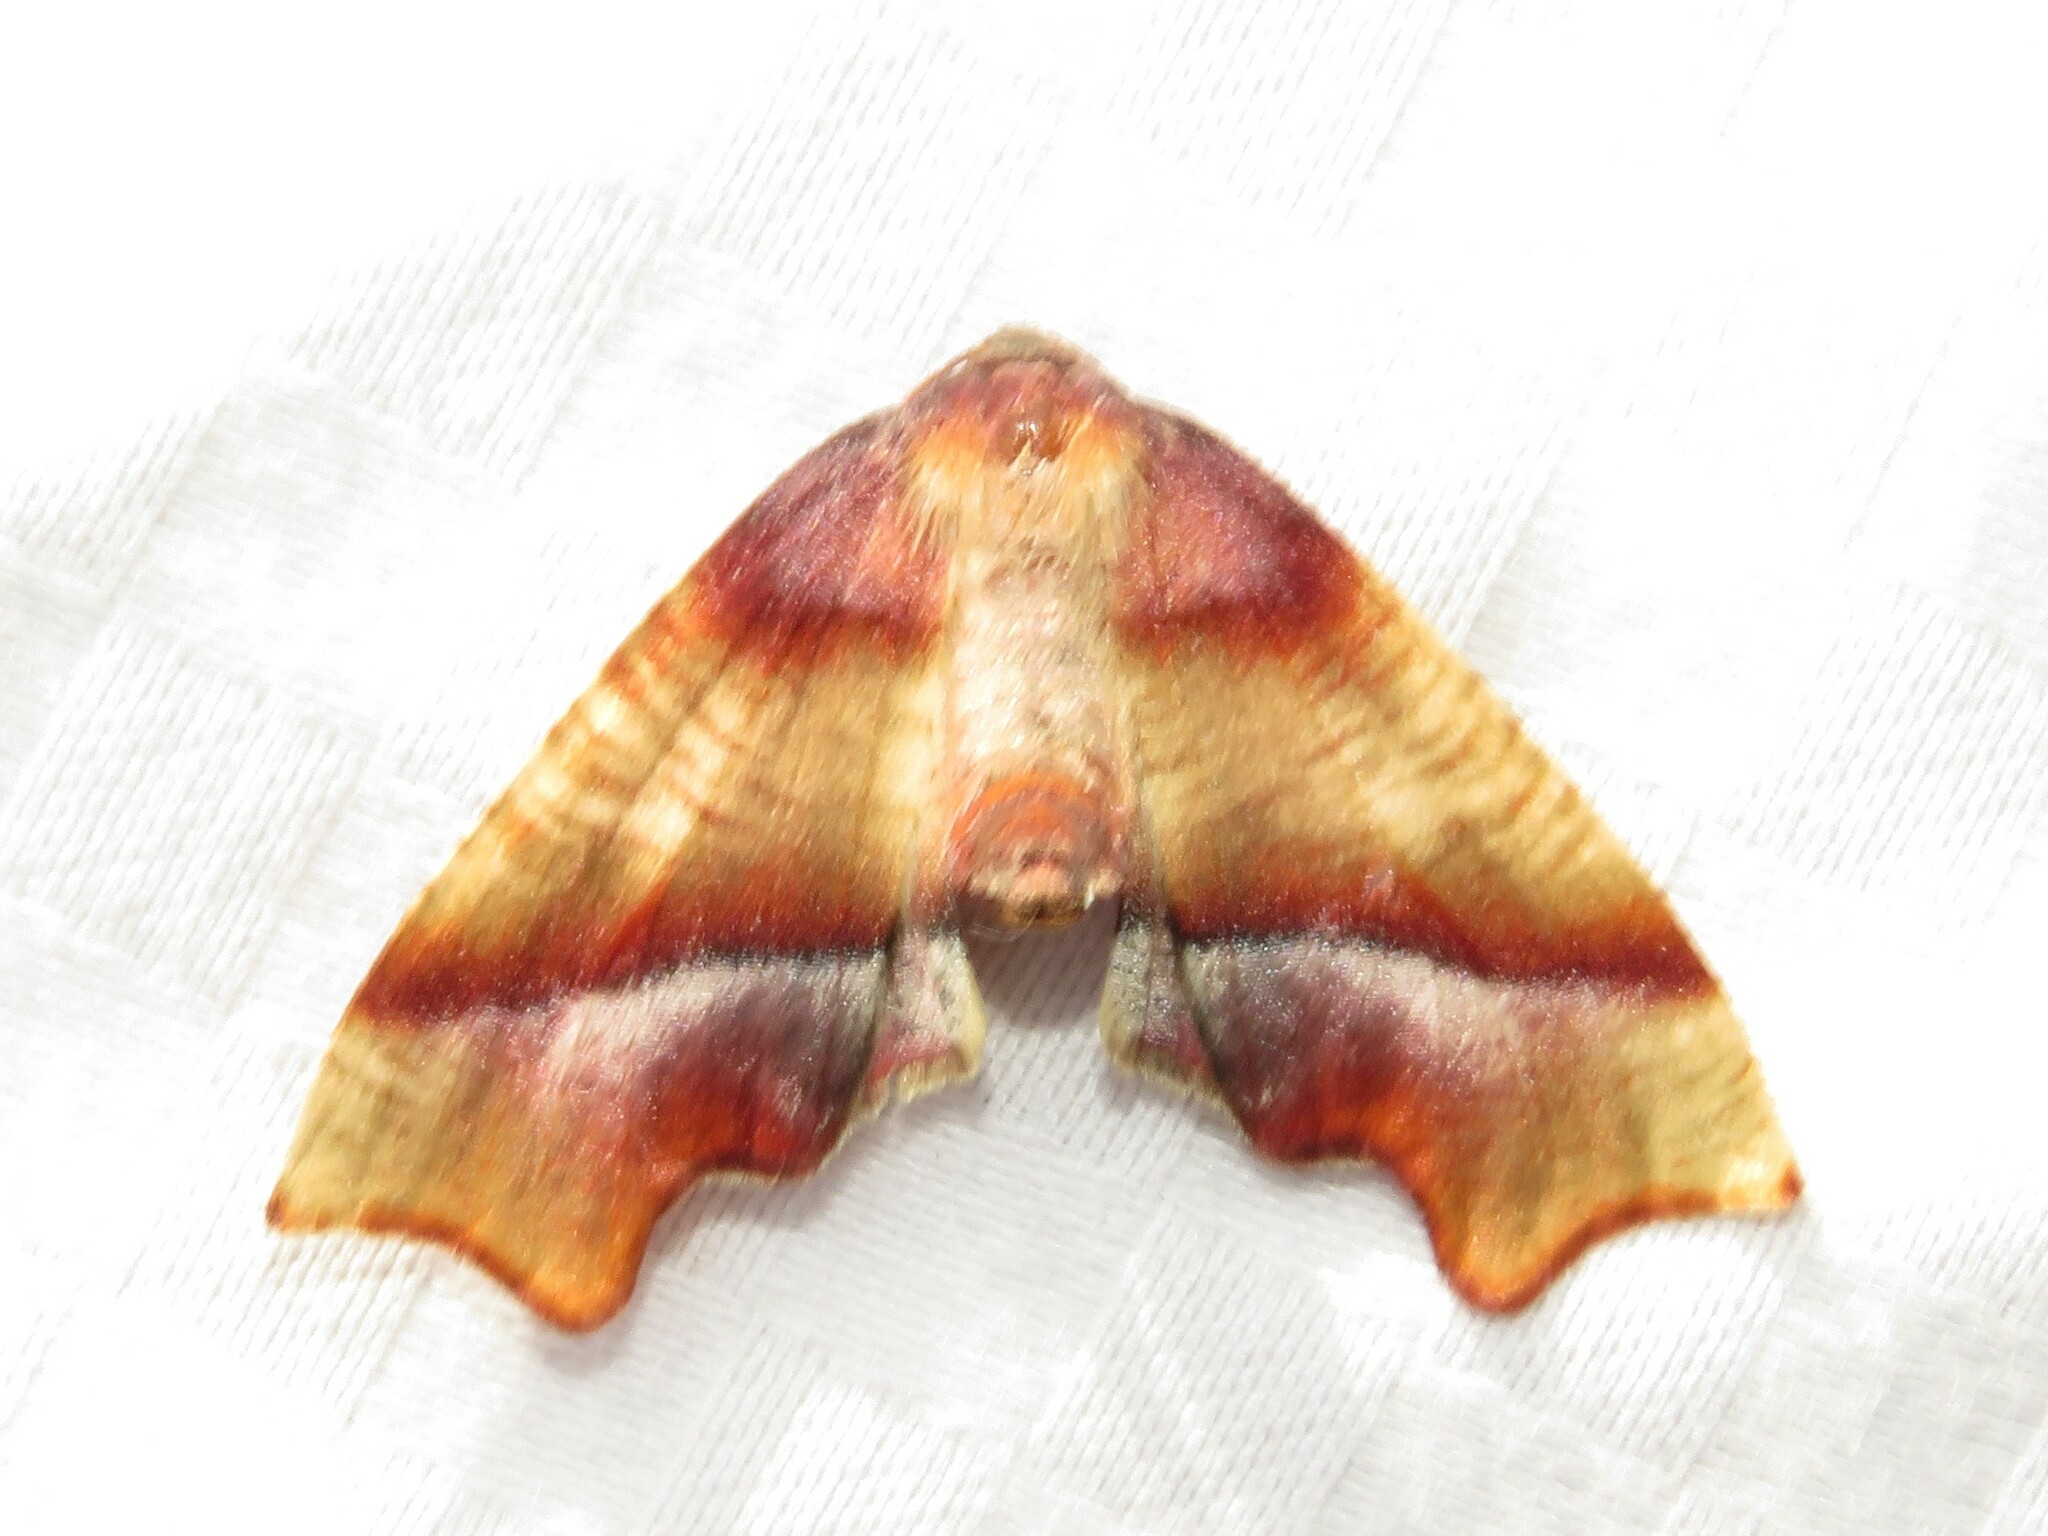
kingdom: Animalia
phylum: Arthropoda
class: Insecta
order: Lepidoptera
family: Geometridae
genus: Plagodis
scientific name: Plagodis phlogosaria
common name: Straight-lined plagodis
